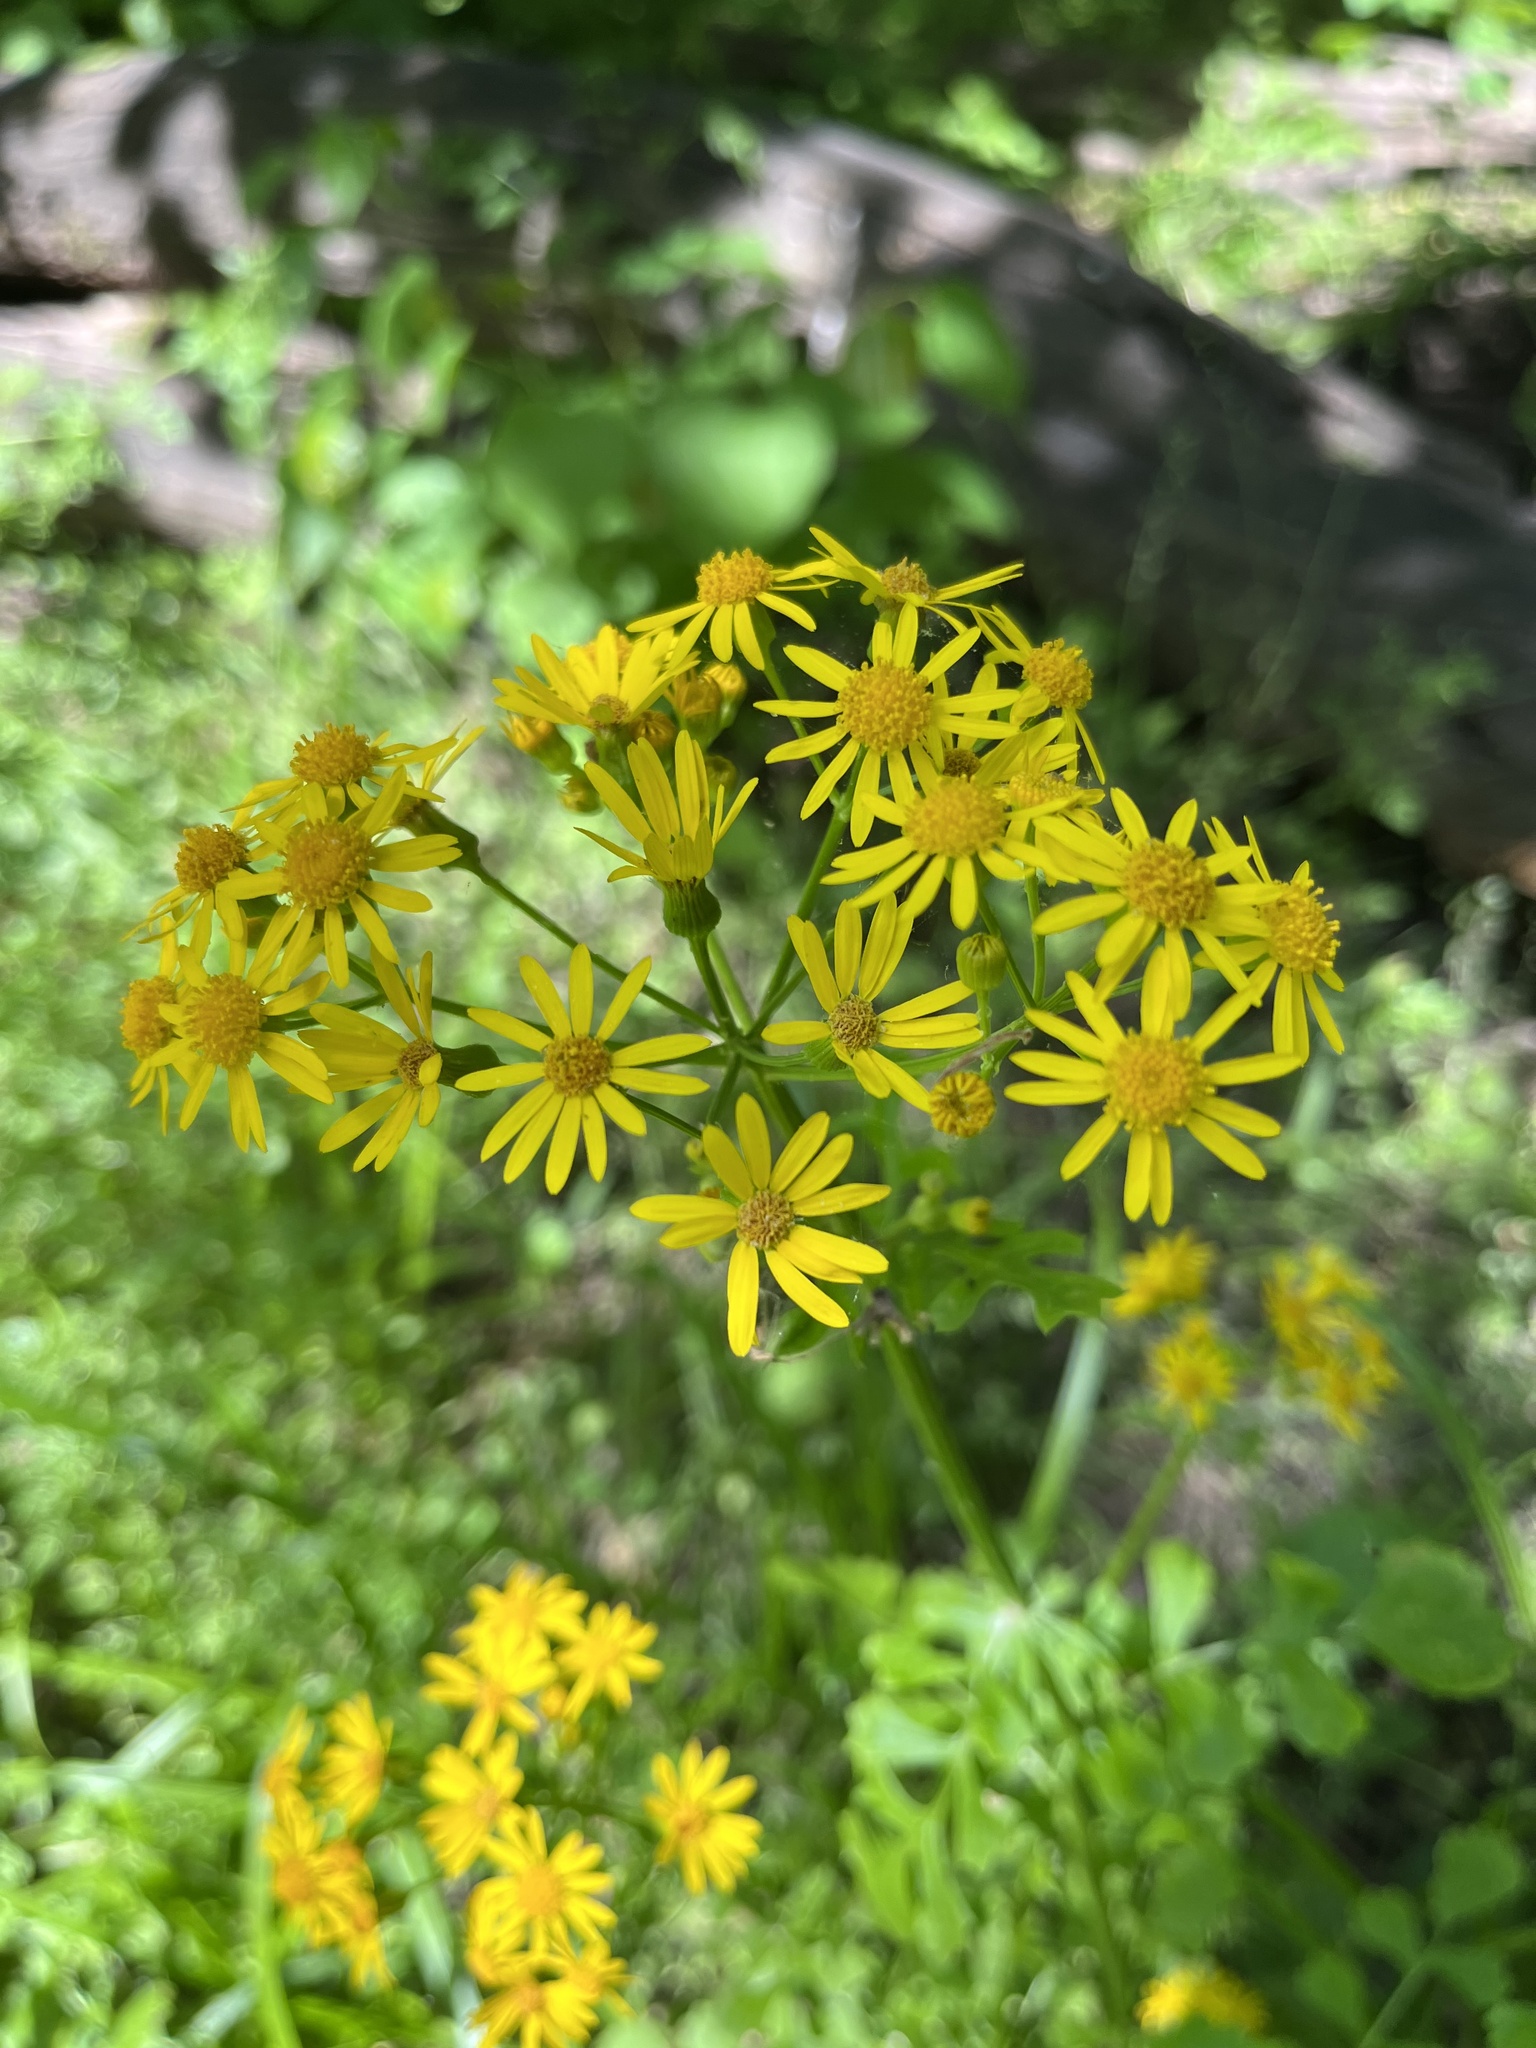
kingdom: Plantae
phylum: Tracheophyta
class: Magnoliopsida
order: Asterales
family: Asteraceae
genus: Packera
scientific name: Packera glabella
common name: Butterweed
